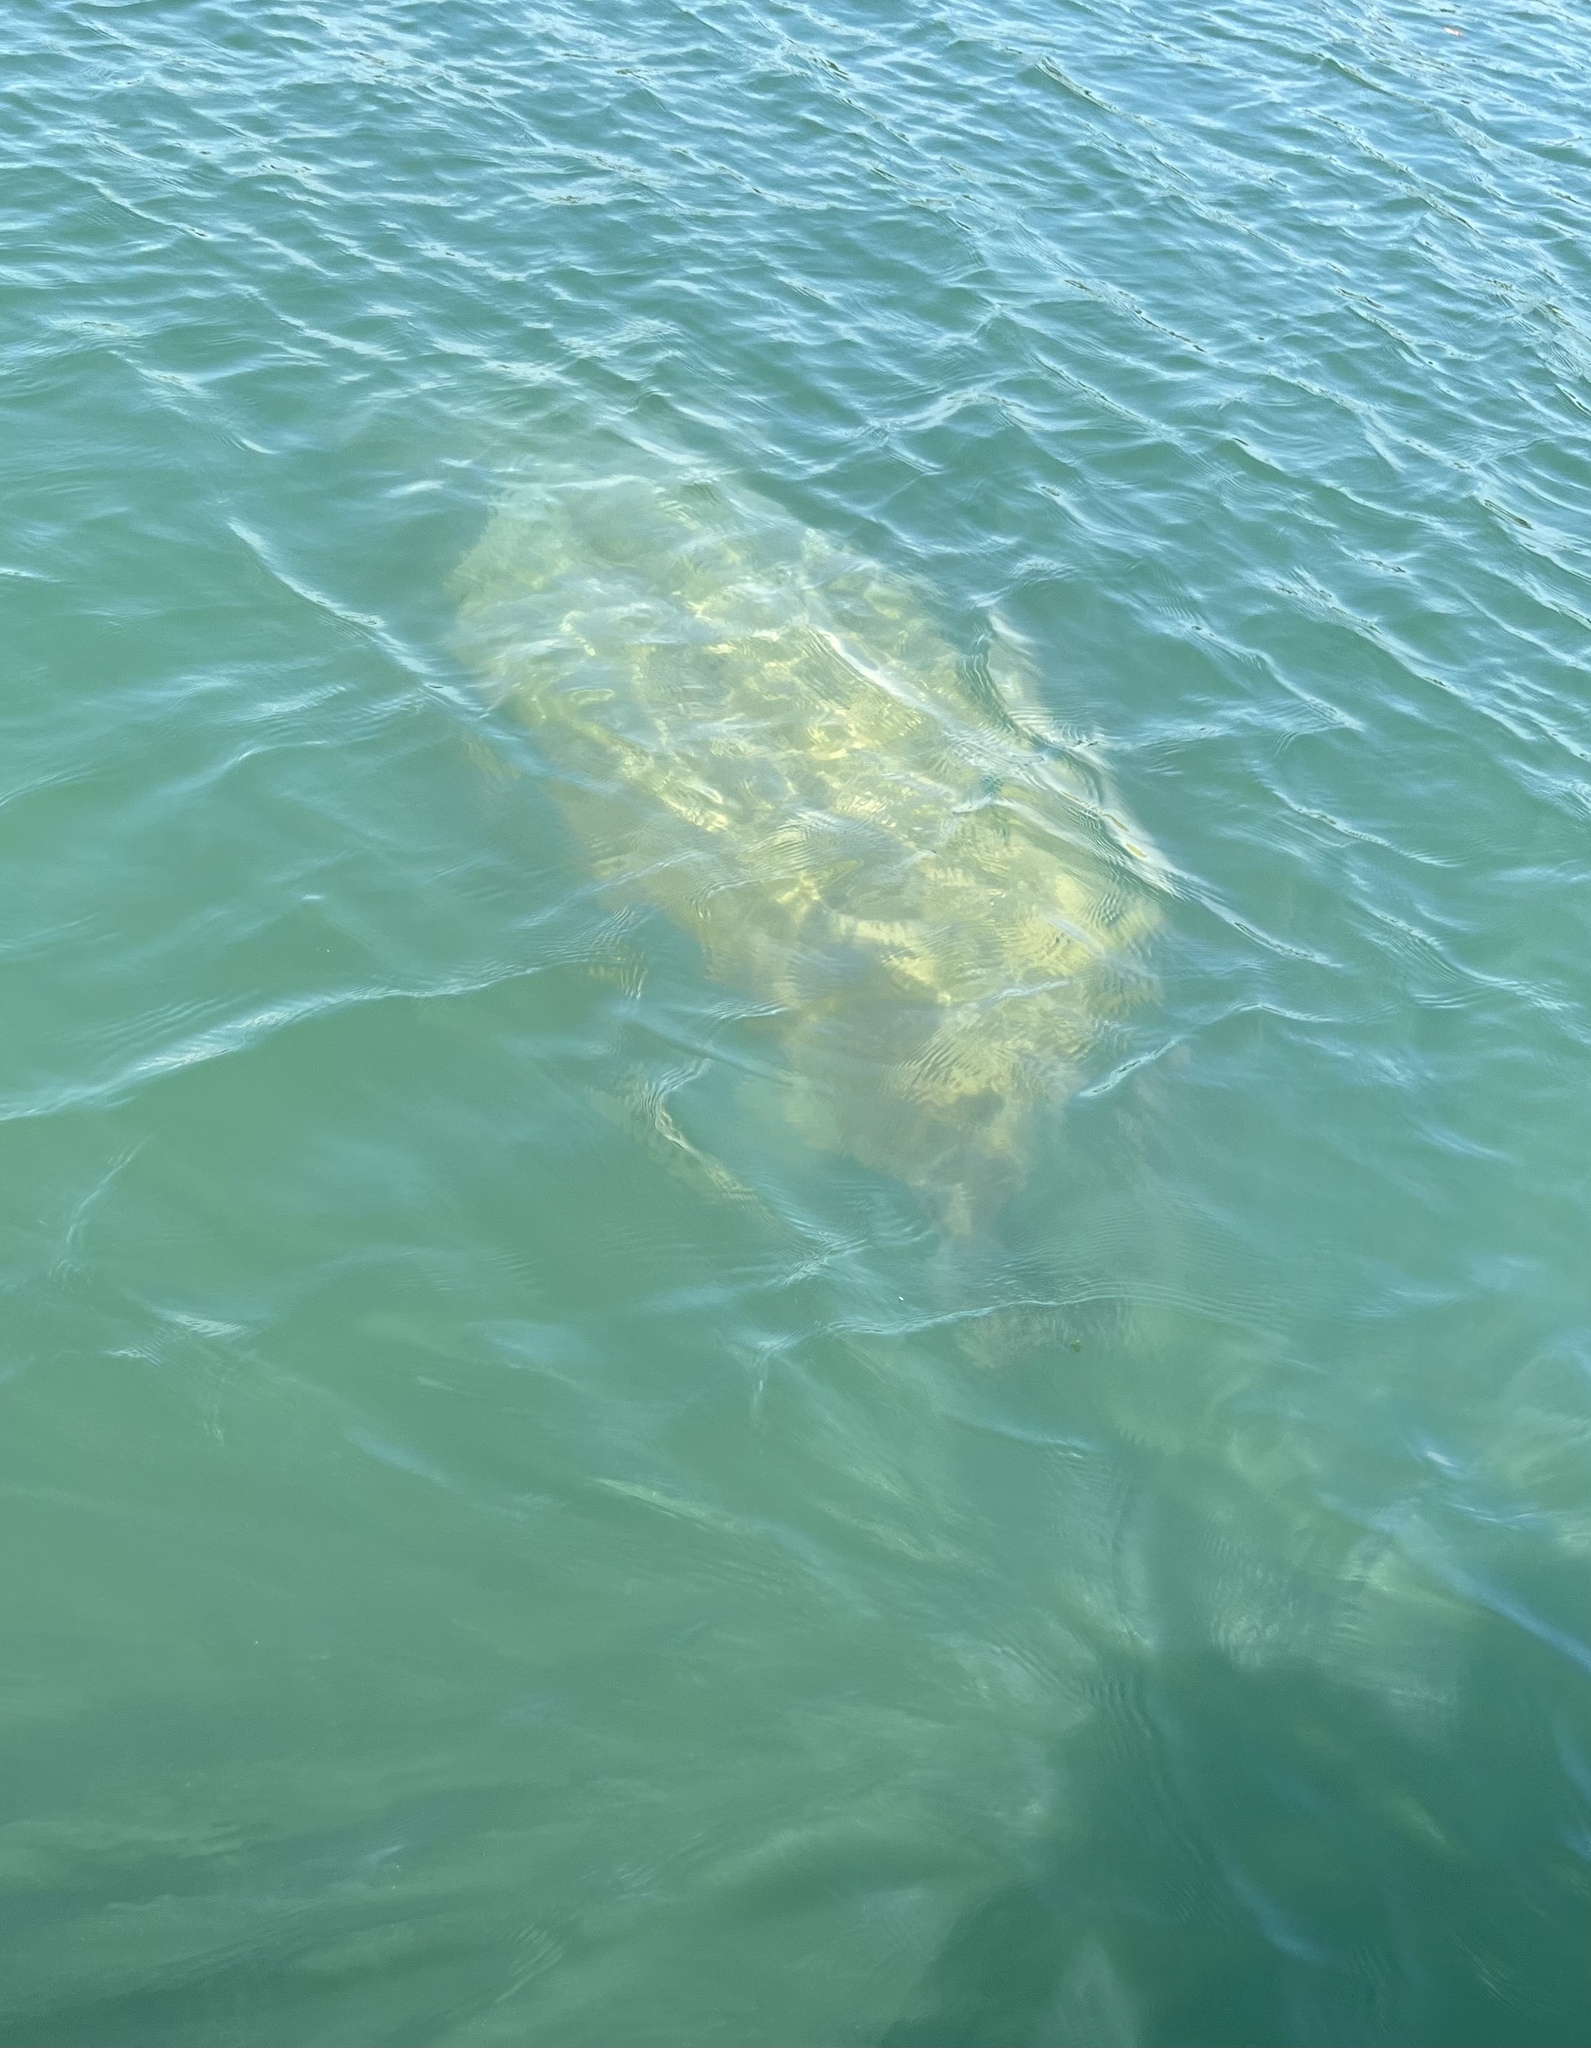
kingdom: Animalia
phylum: Chordata
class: Mammalia
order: Sirenia
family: Trichechidae
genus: Trichechus
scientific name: Trichechus manatus
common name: West indian manatee
